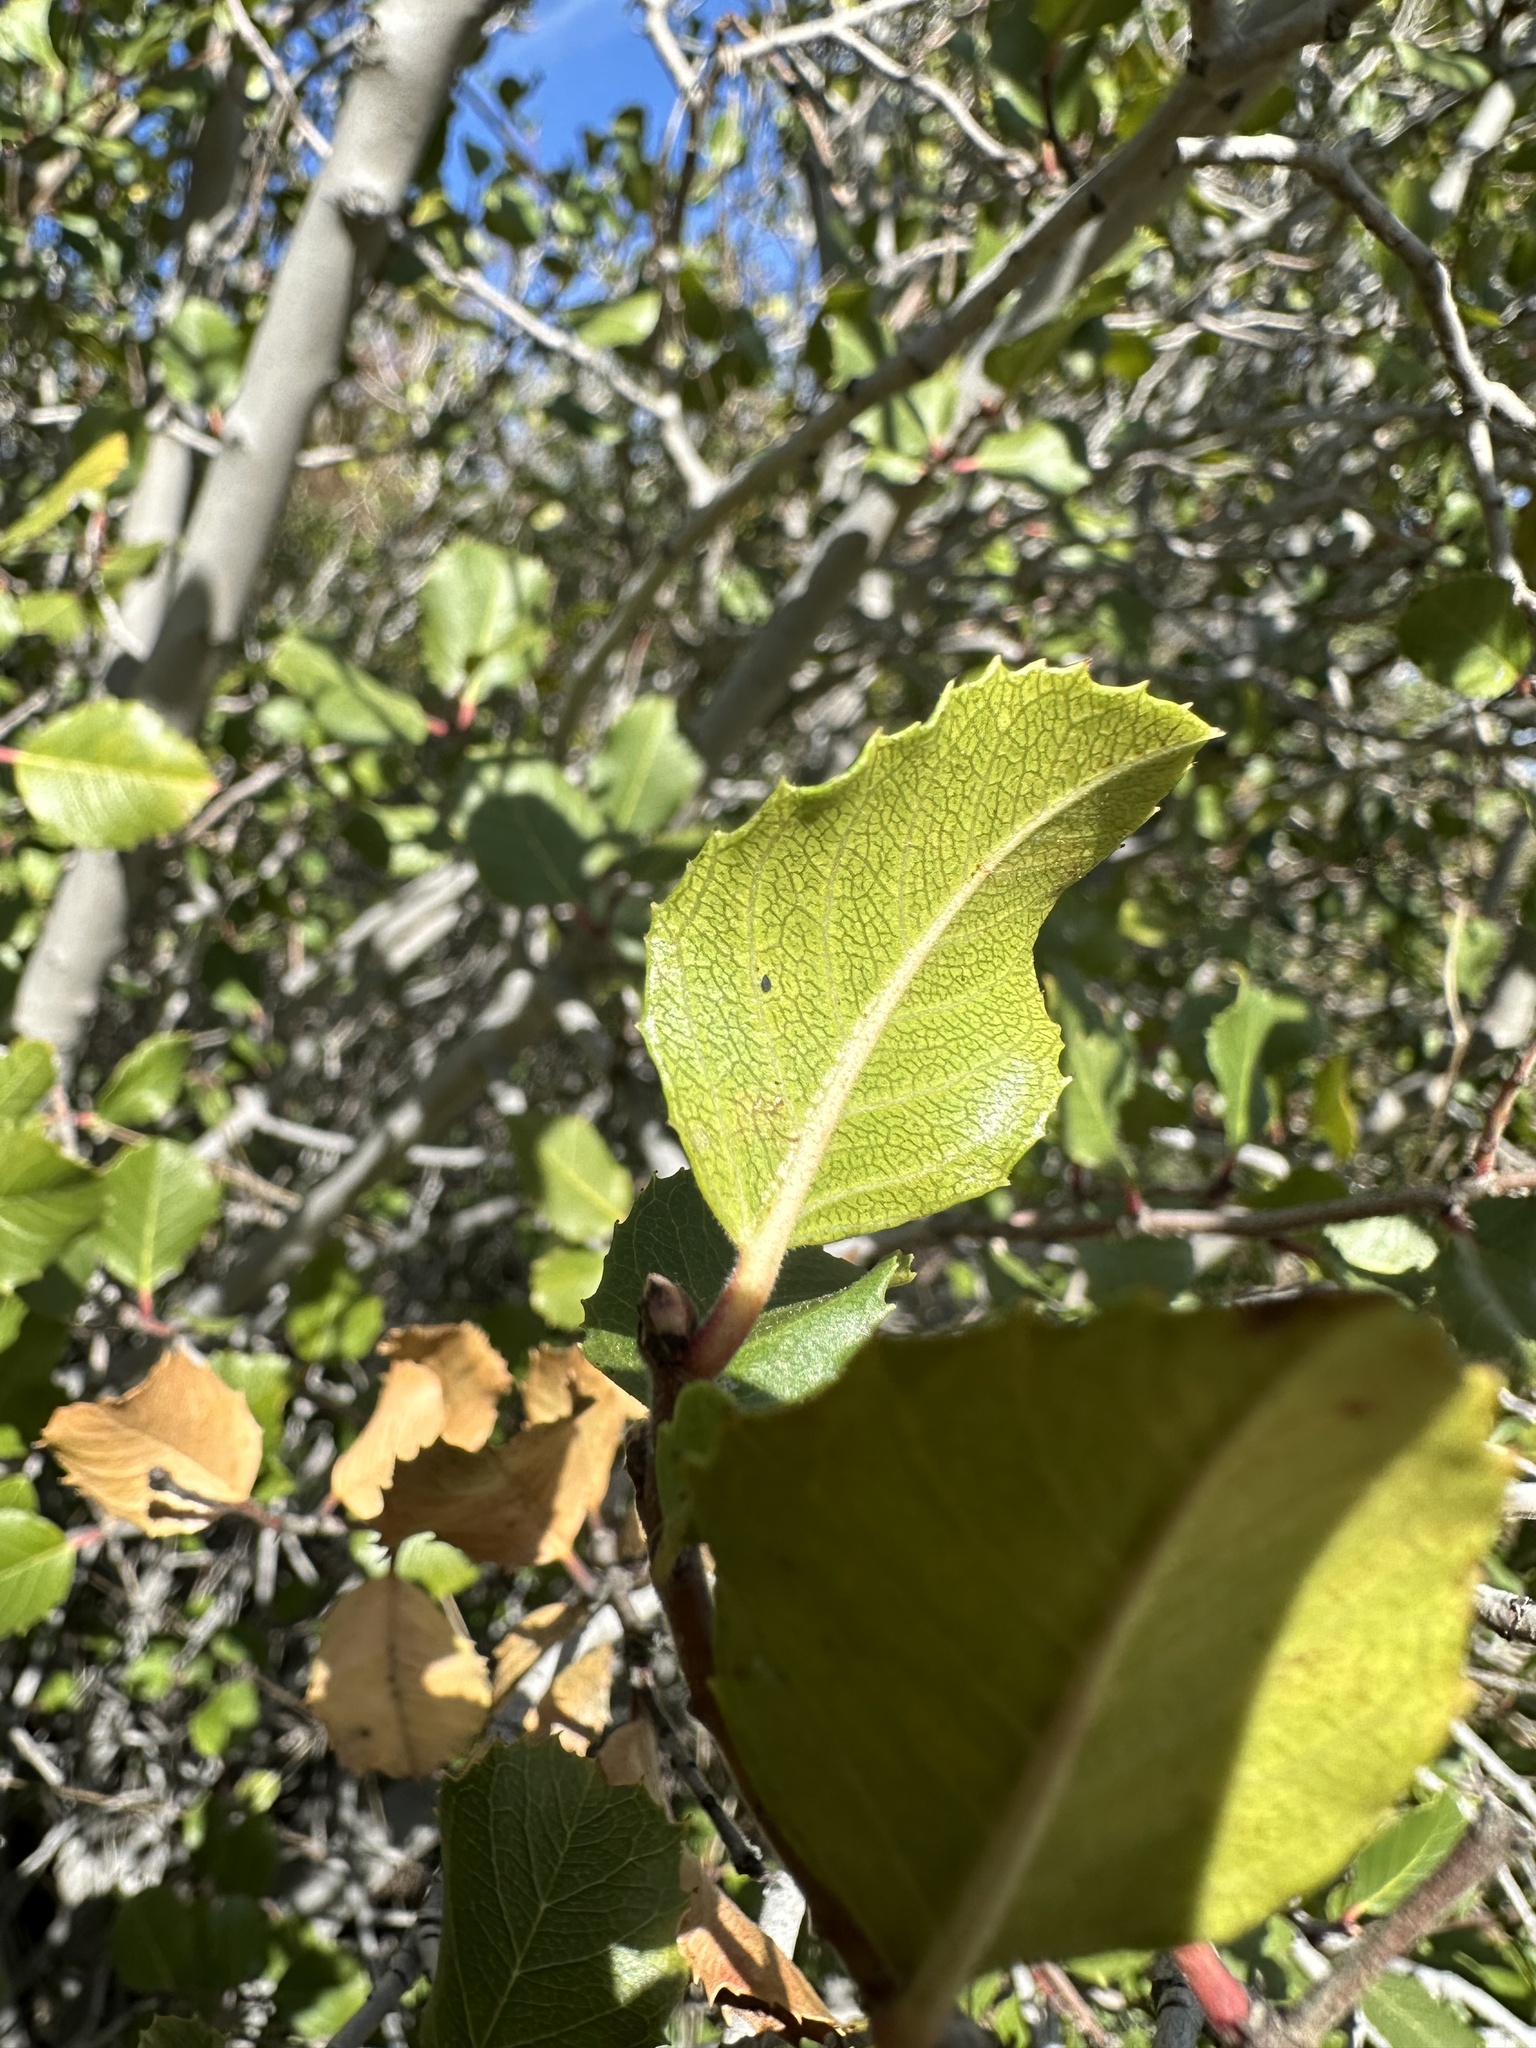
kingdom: Plantae
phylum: Tracheophyta
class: Magnoliopsida
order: Rosales
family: Rhamnaceae
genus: Endotropis
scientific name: Endotropis crocea
